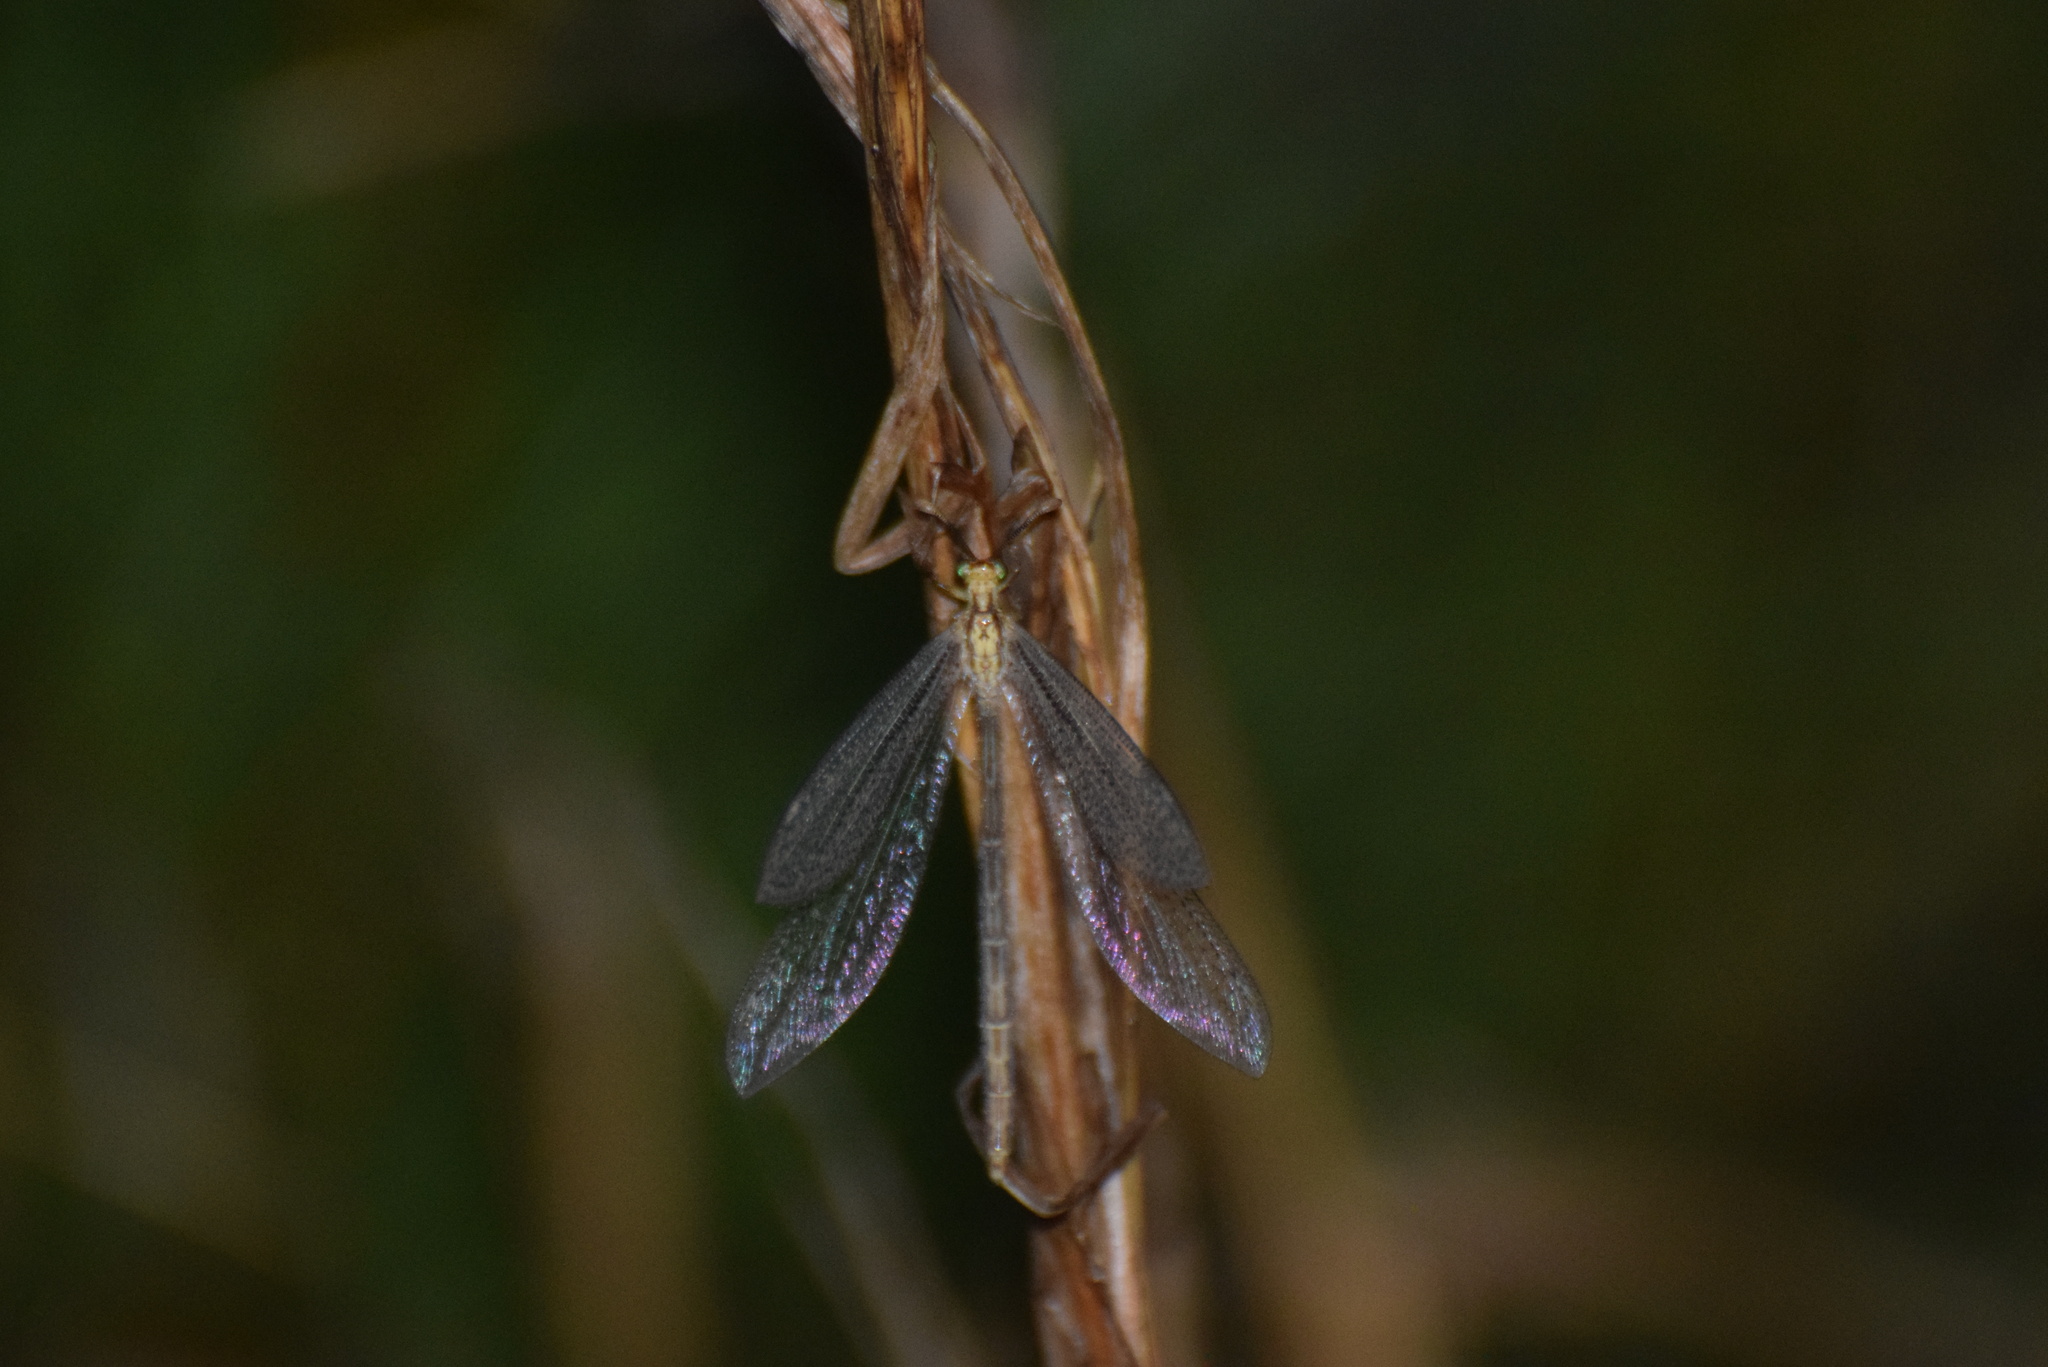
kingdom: Animalia
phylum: Arthropoda
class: Insecta
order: Neuroptera
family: Myrmeleontidae
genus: Brachynemurus
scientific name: Brachynemurus abdominalis
